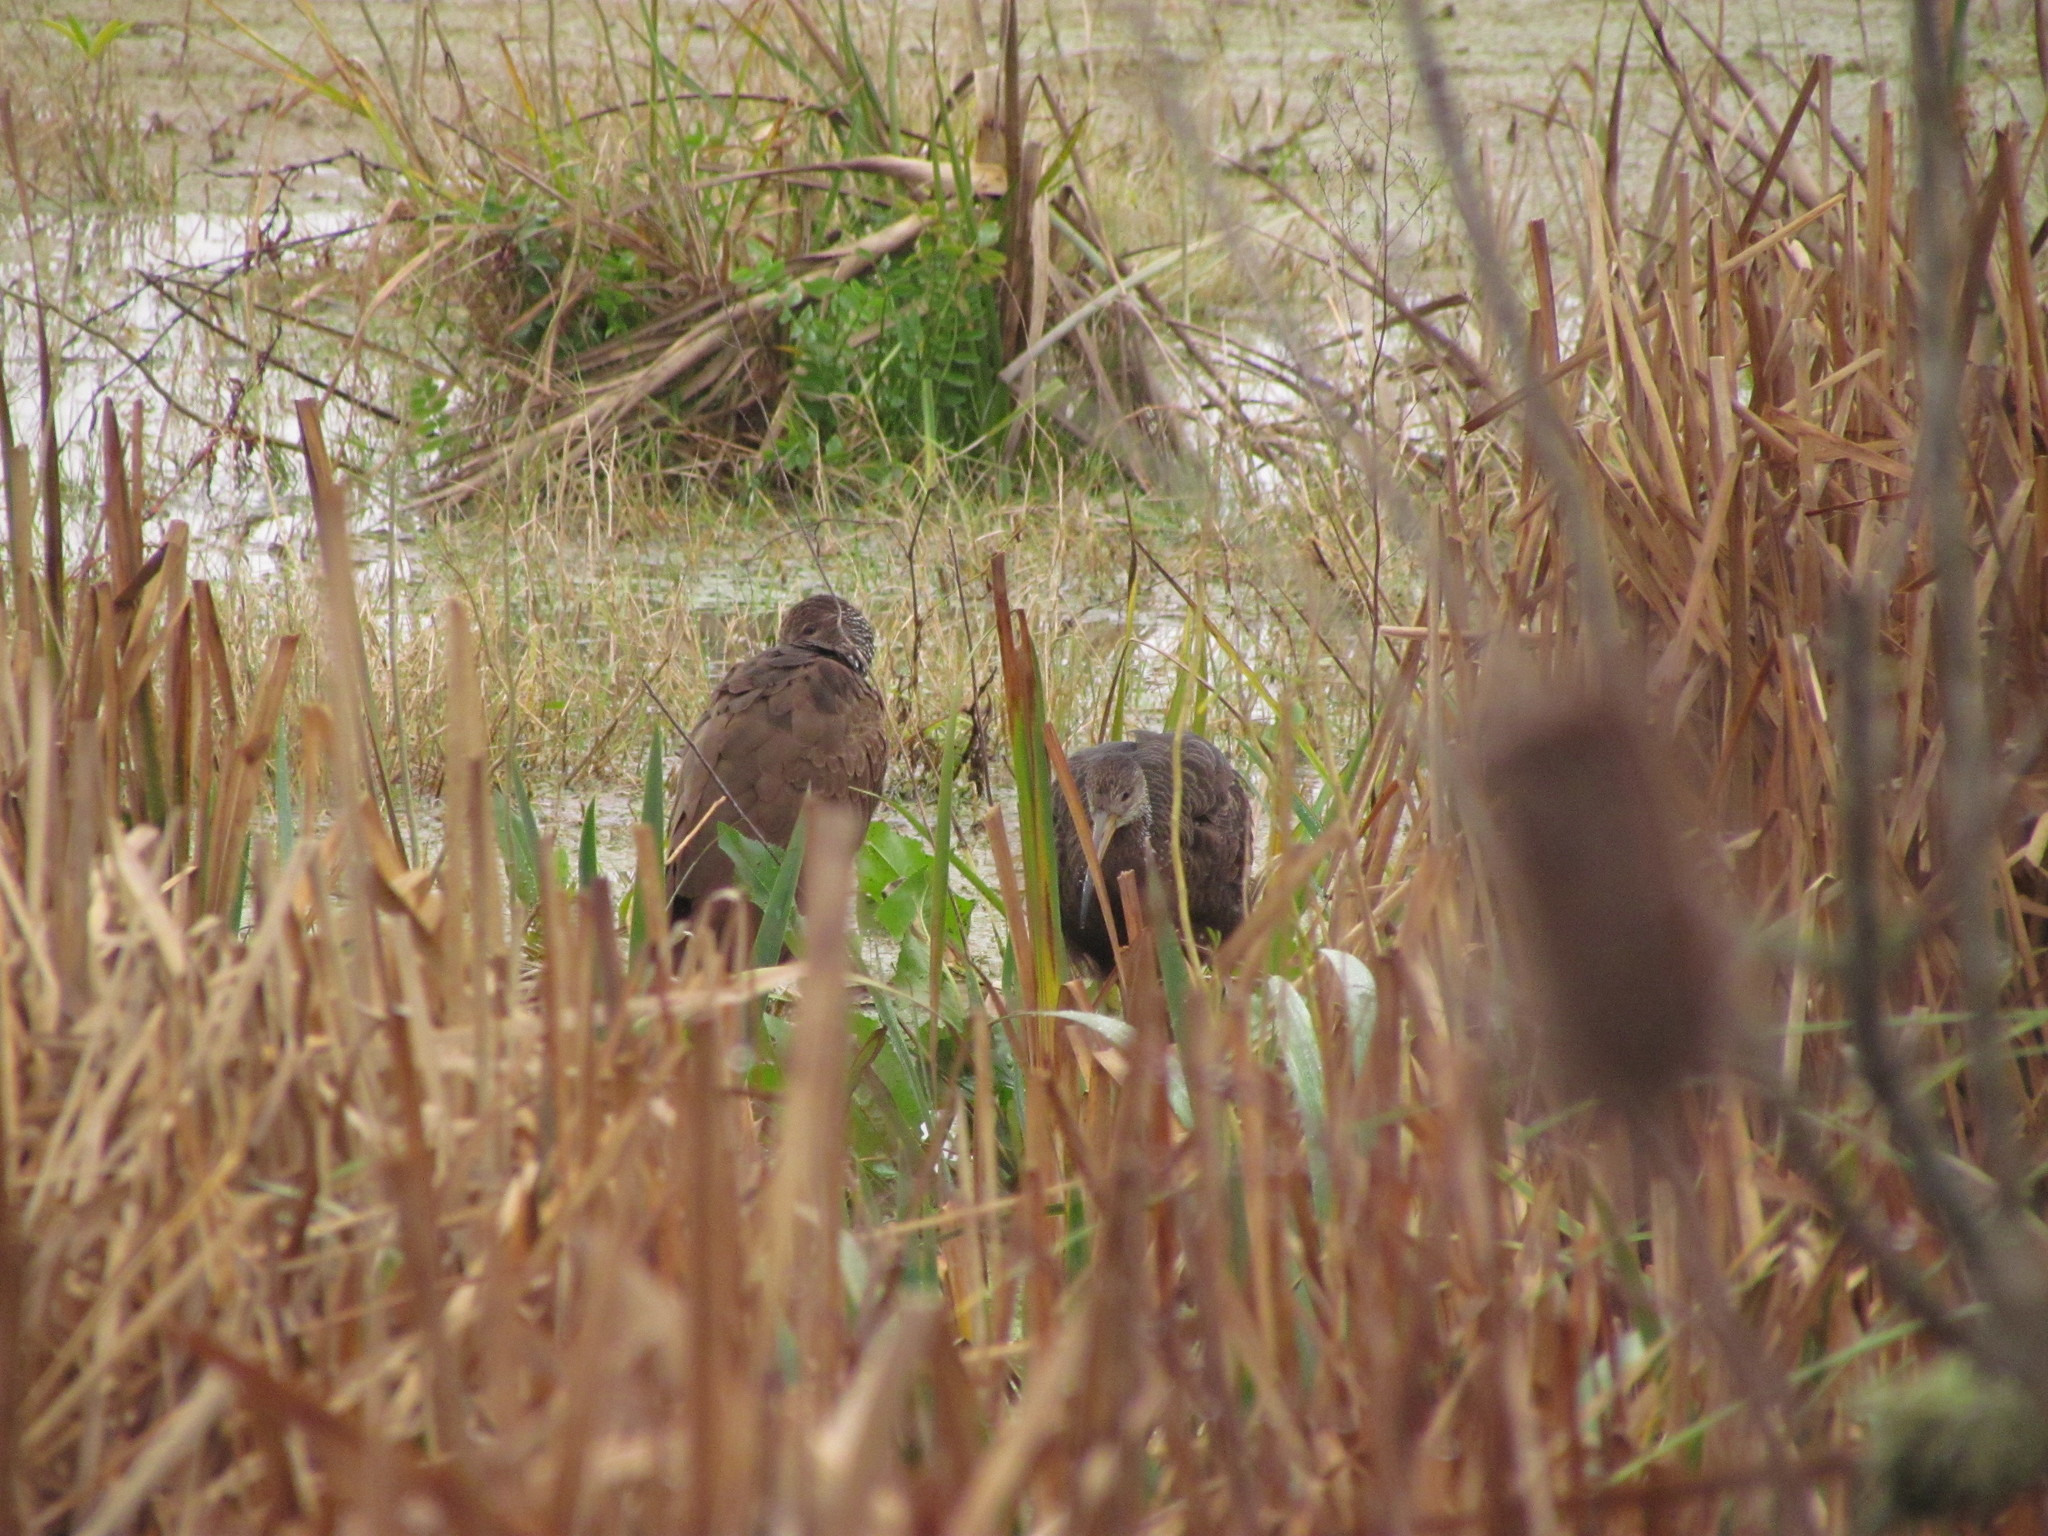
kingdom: Animalia
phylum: Chordata
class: Aves
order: Gruiformes
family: Aramidae
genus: Aramus
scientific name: Aramus guarauna
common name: Limpkin
